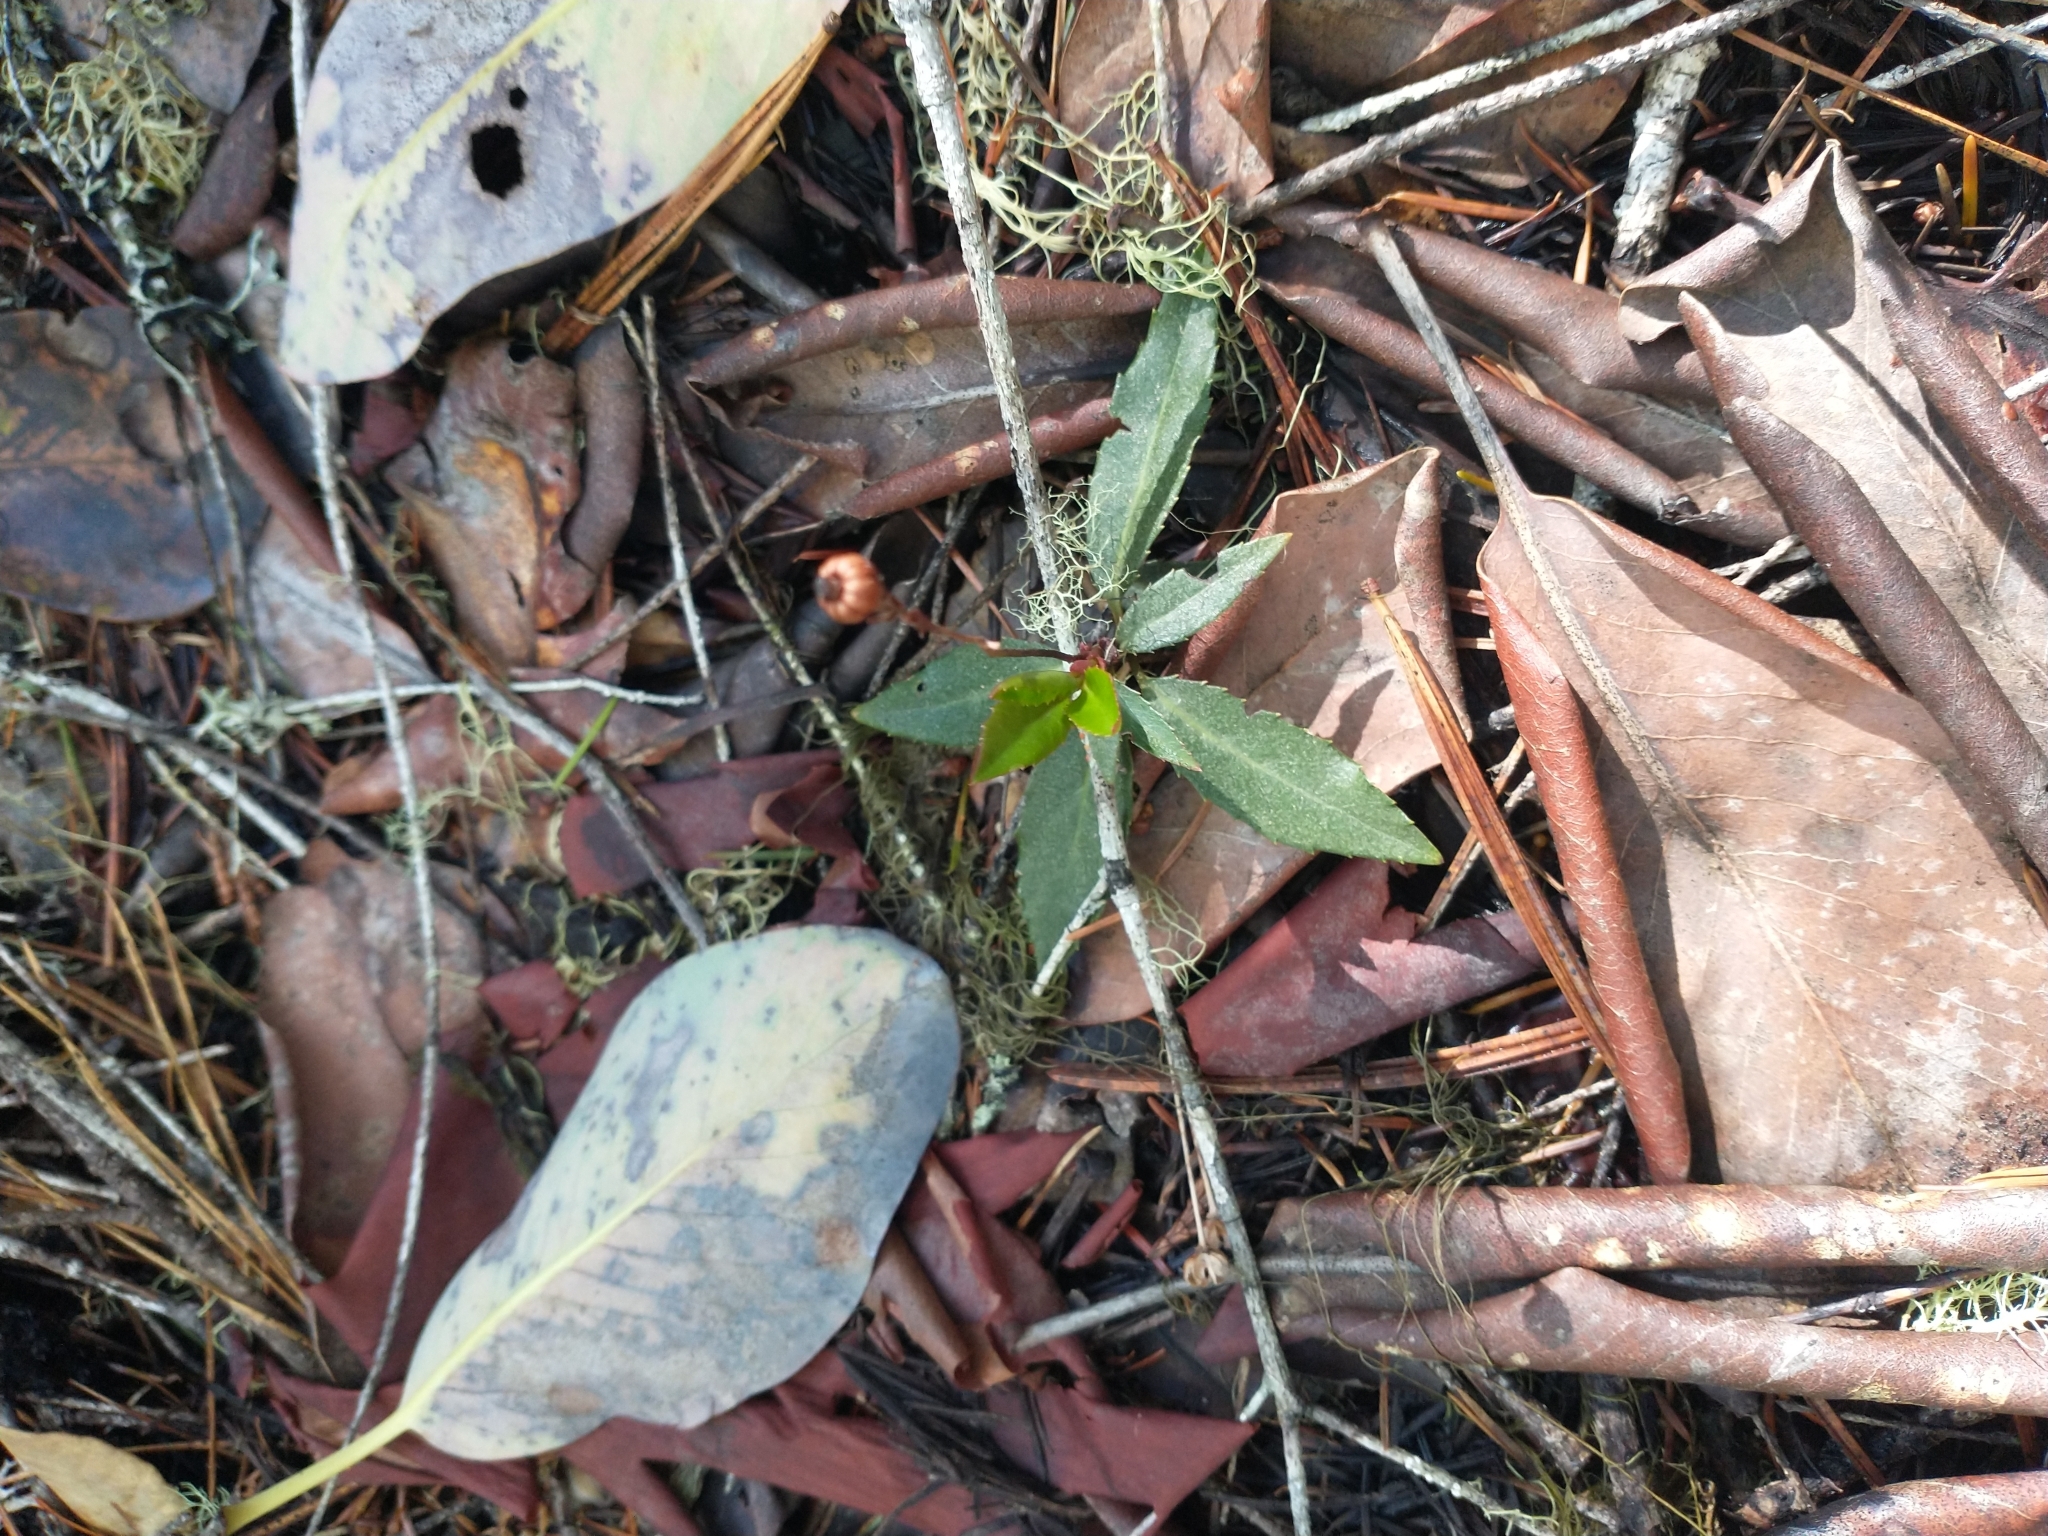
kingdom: Plantae
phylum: Tracheophyta
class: Magnoliopsida
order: Ericales
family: Ericaceae
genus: Chimaphila
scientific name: Chimaphila menziesii
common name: Menzies' pipsissewa
